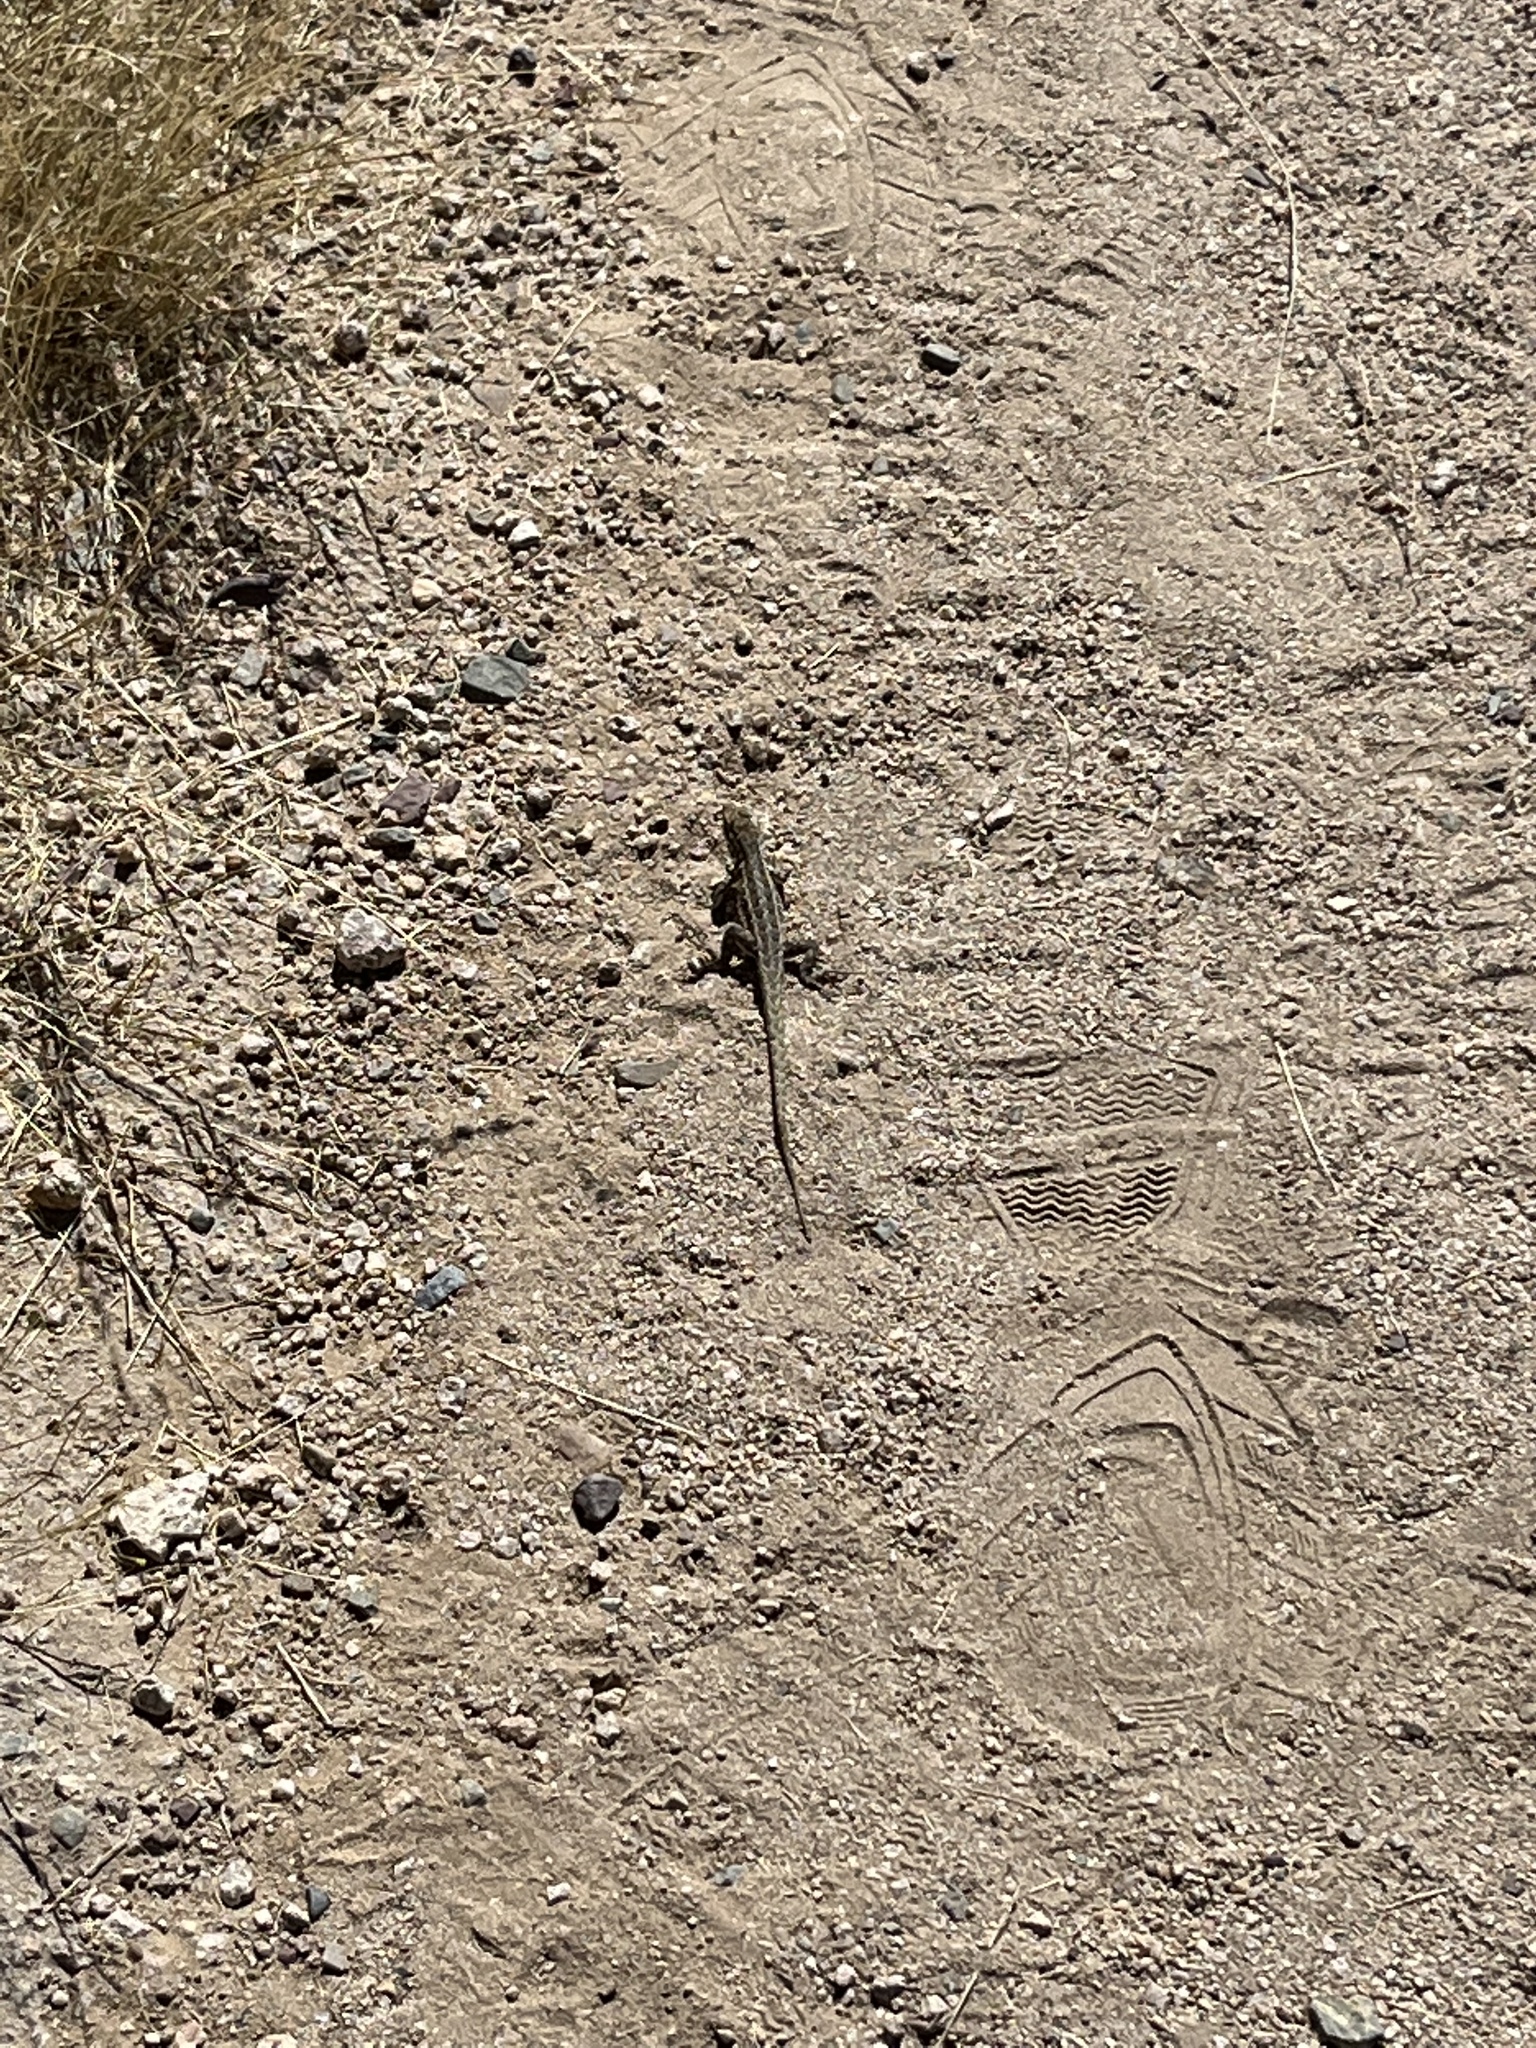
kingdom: Animalia
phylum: Chordata
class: Squamata
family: Phrynosomatidae
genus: Uta
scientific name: Uta stansburiana
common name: Side-blotched lizard
